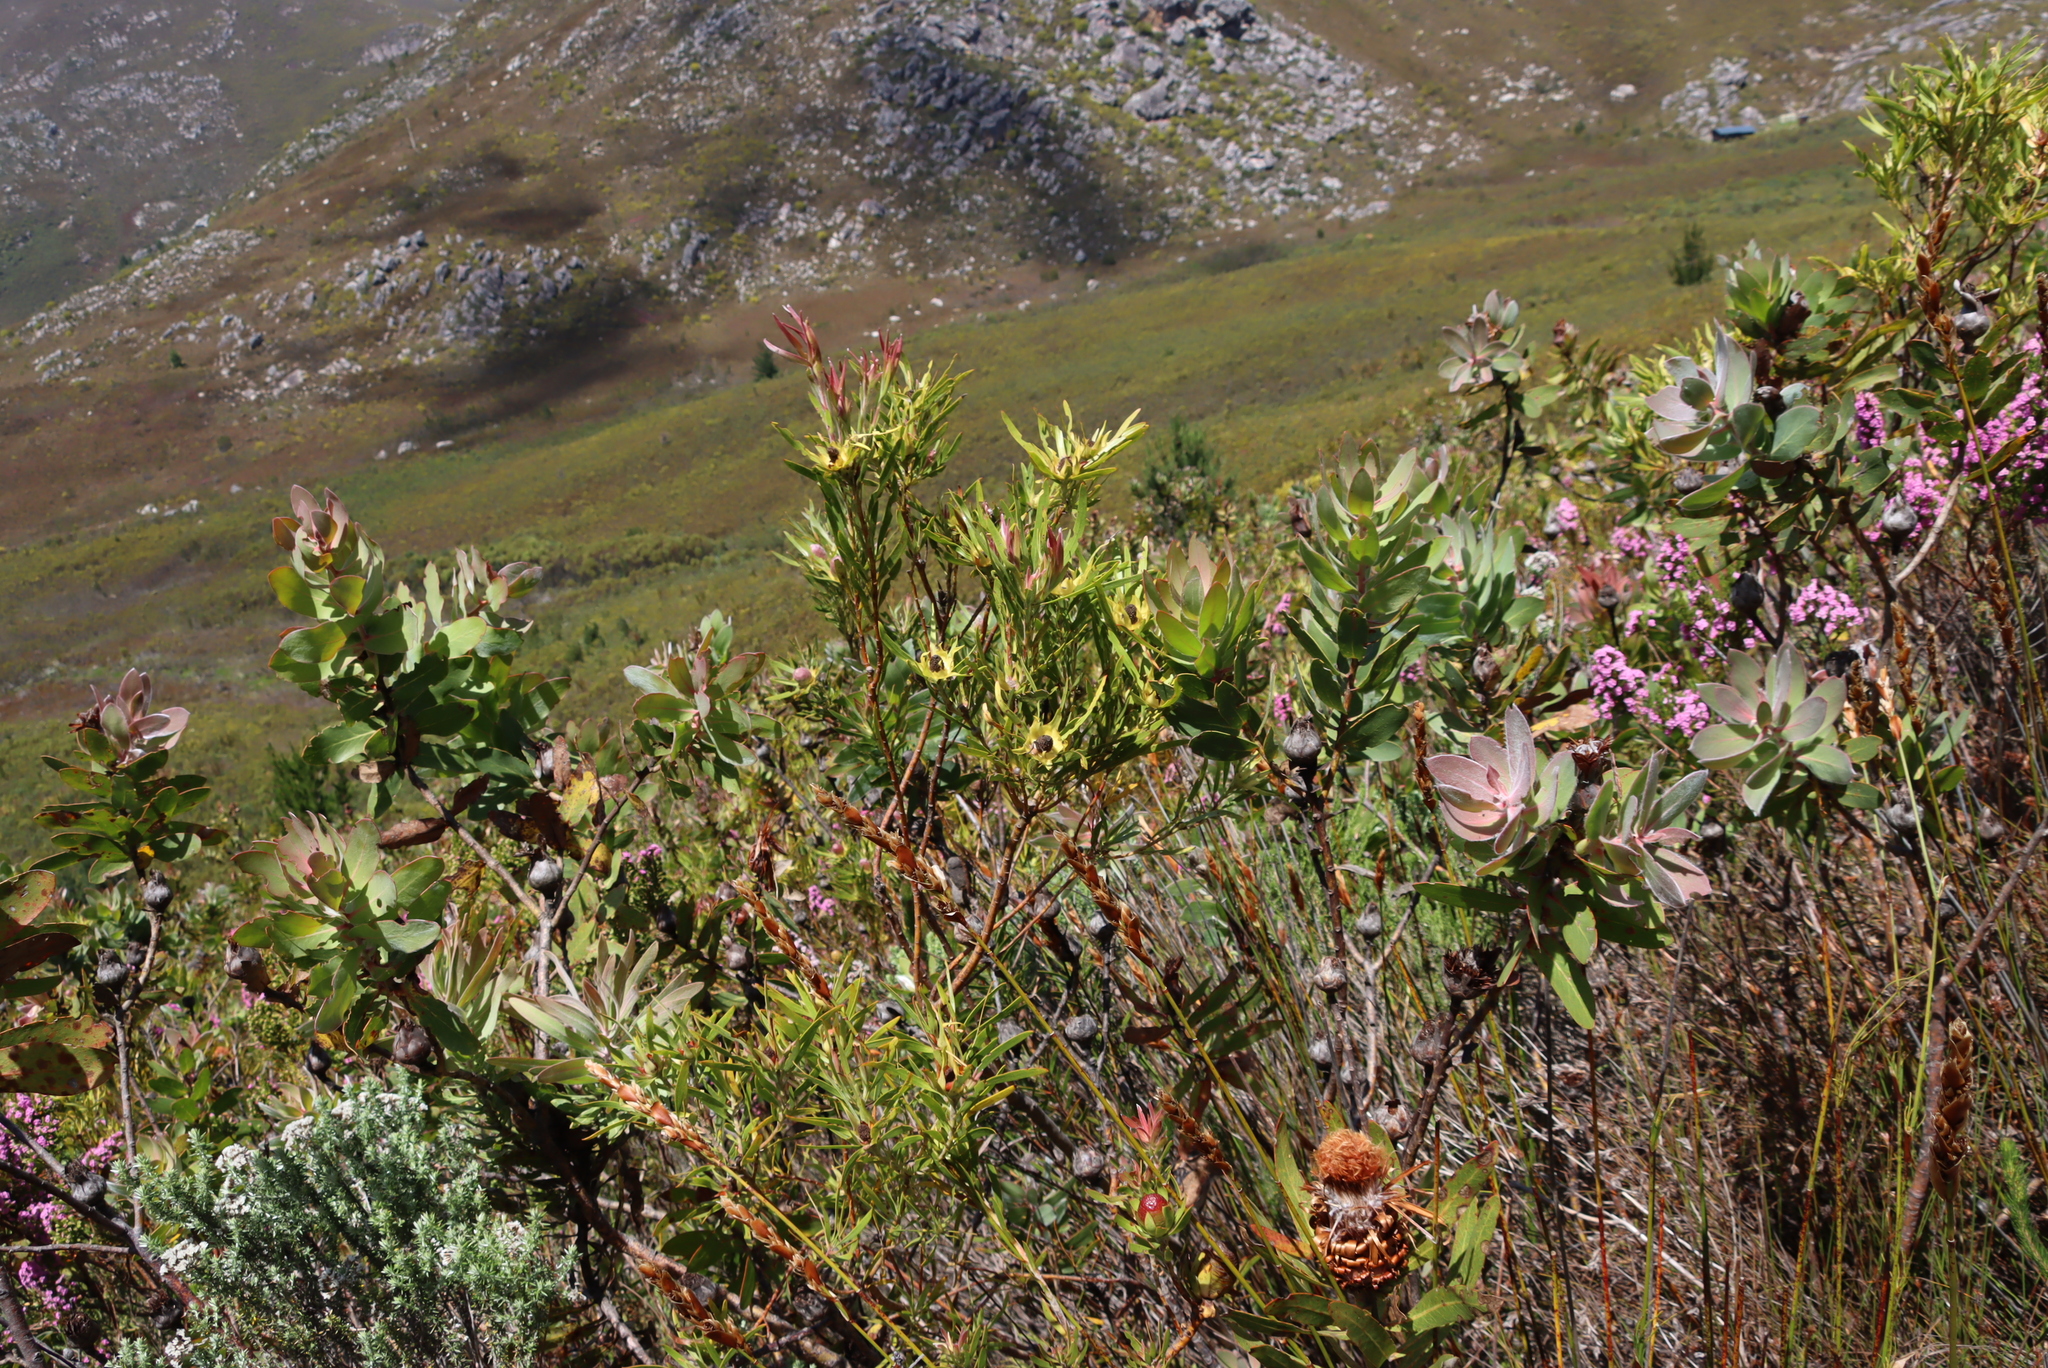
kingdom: Plantae
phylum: Tracheophyta
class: Magnoliopsida
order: Proteales
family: Proteaceae
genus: Protea
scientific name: Protea eximia
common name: Broad-leaved sugarbush
